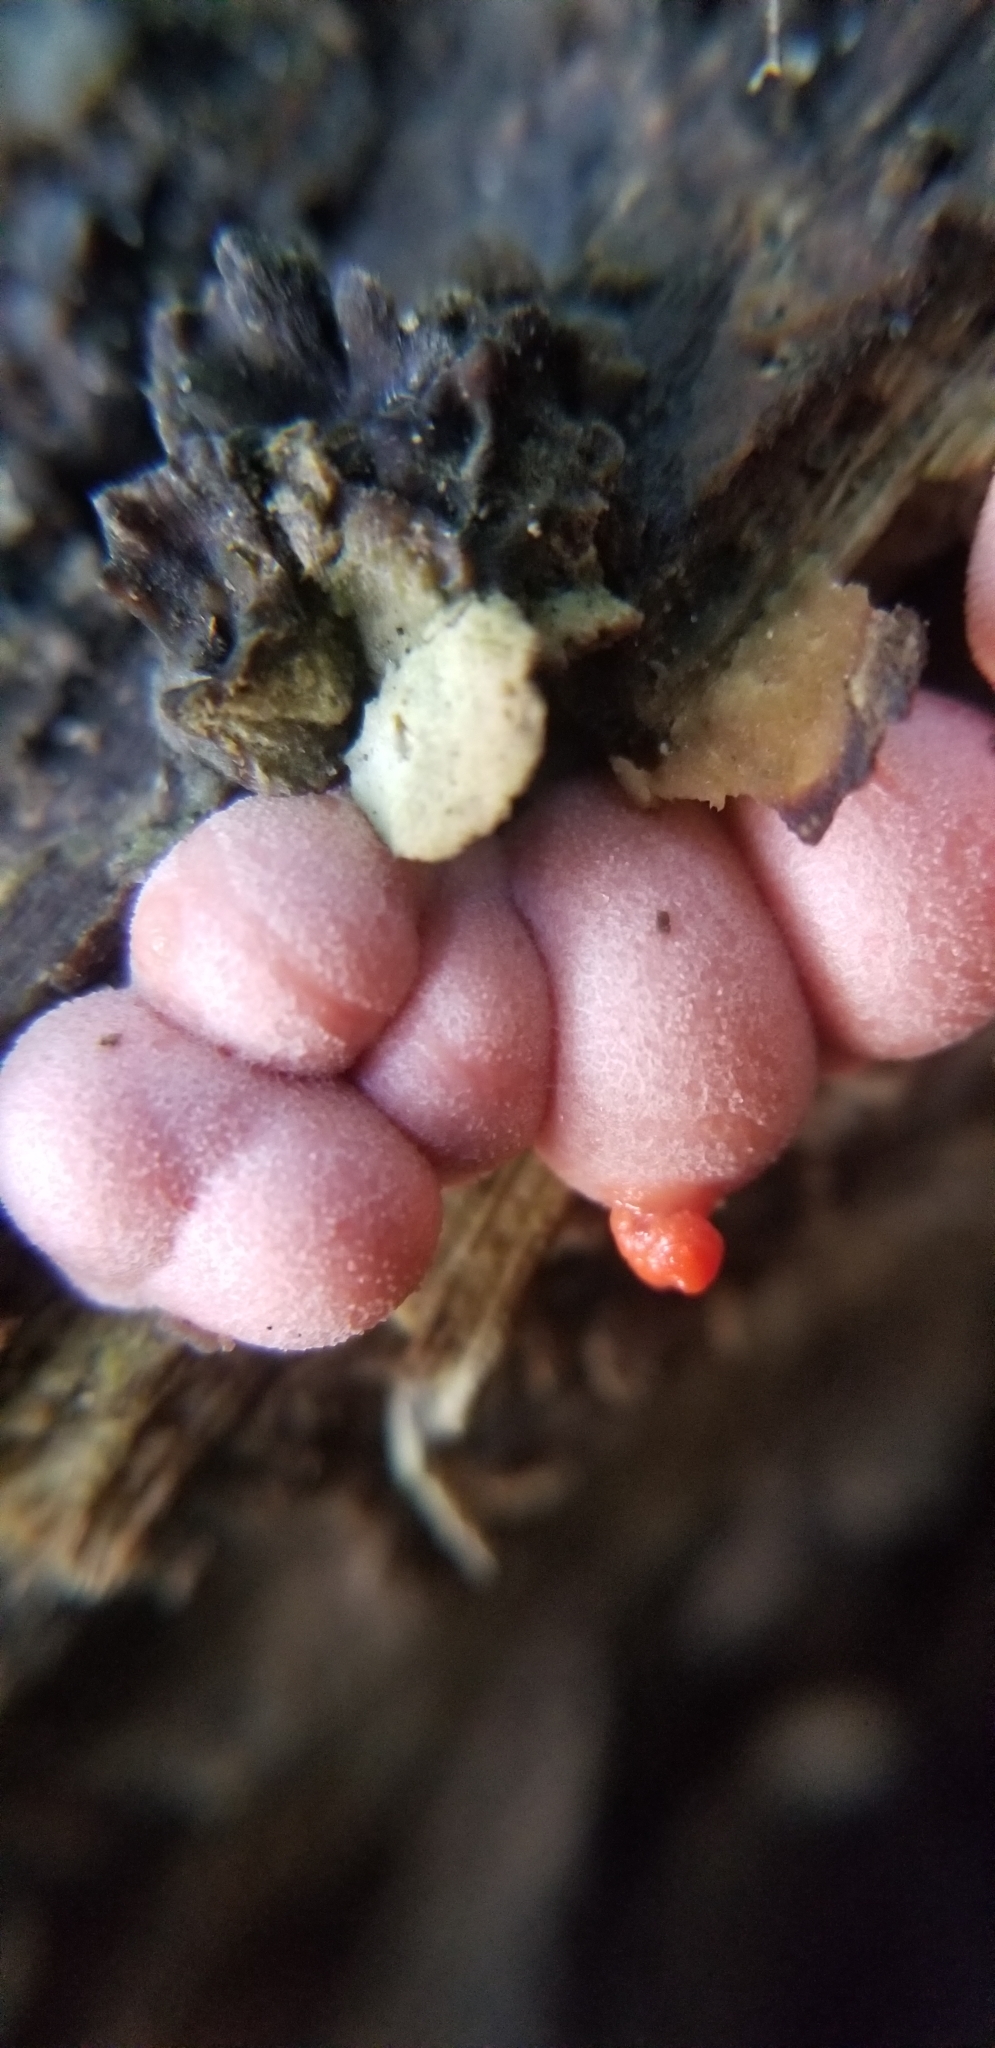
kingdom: Protozoa
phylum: Mycetozoa
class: Myxomycetes
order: Cribrariales
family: Tubiferaceae
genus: Lycogala
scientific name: Lycogala epidendrum
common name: Wolf's milk
